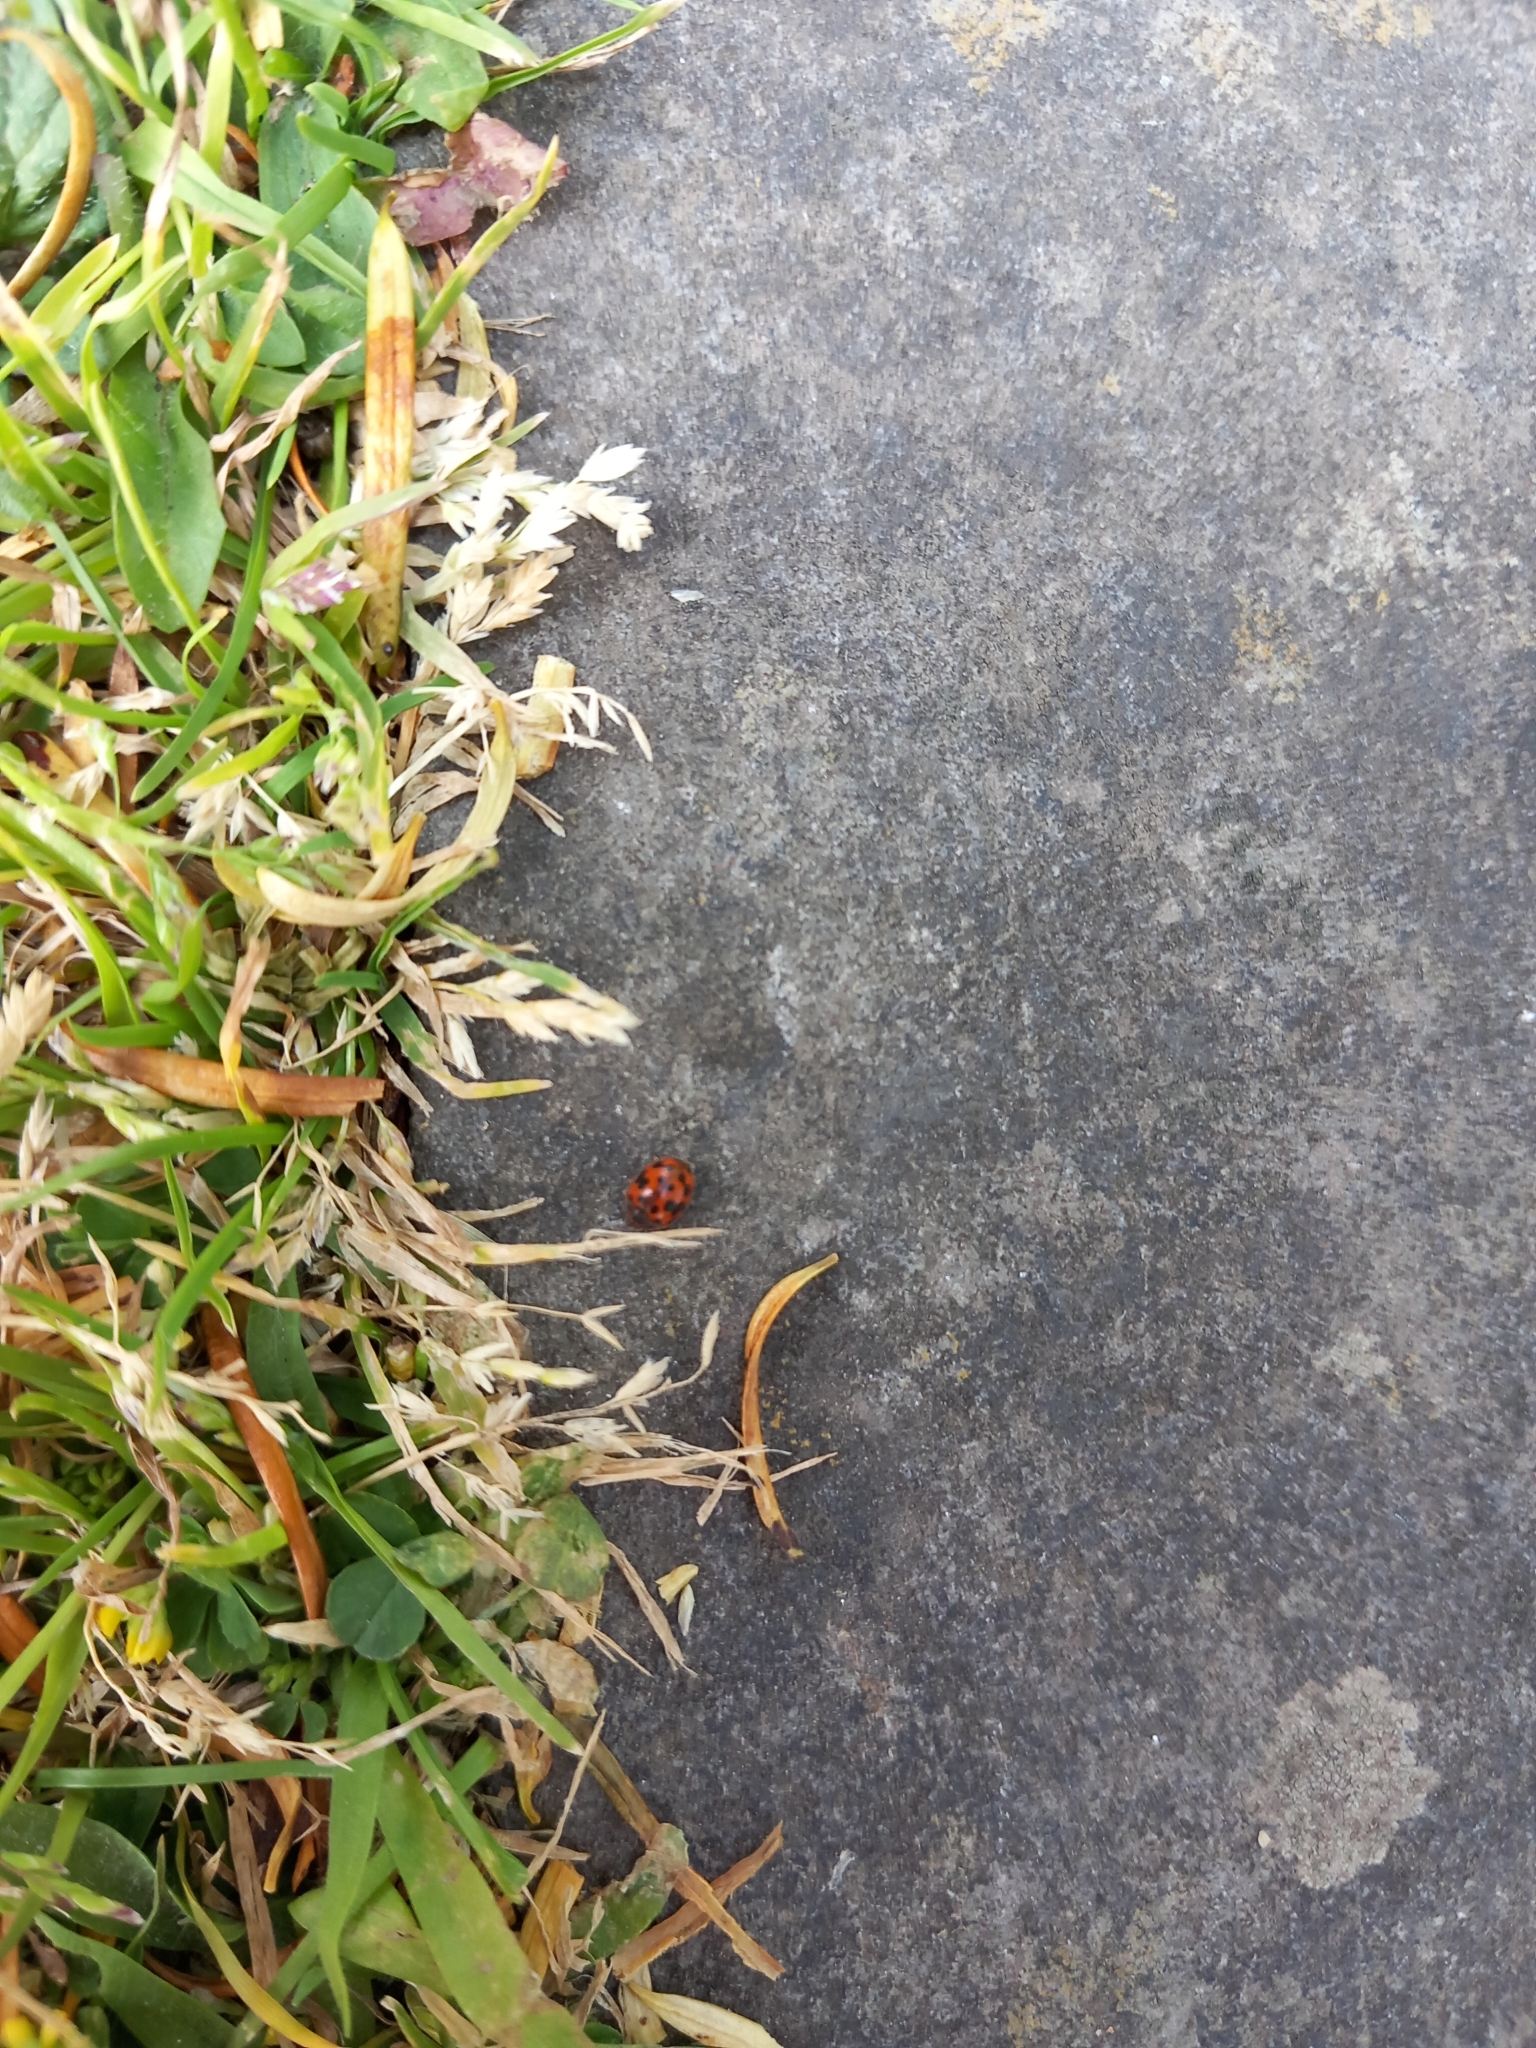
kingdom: Animalia
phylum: Arthropoda
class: Insecta
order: Coleoptera
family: Coccinellidae
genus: Subcoccinella
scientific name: Subcoccinella vigintiquatuorpunctata
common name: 24-spot ladybird
